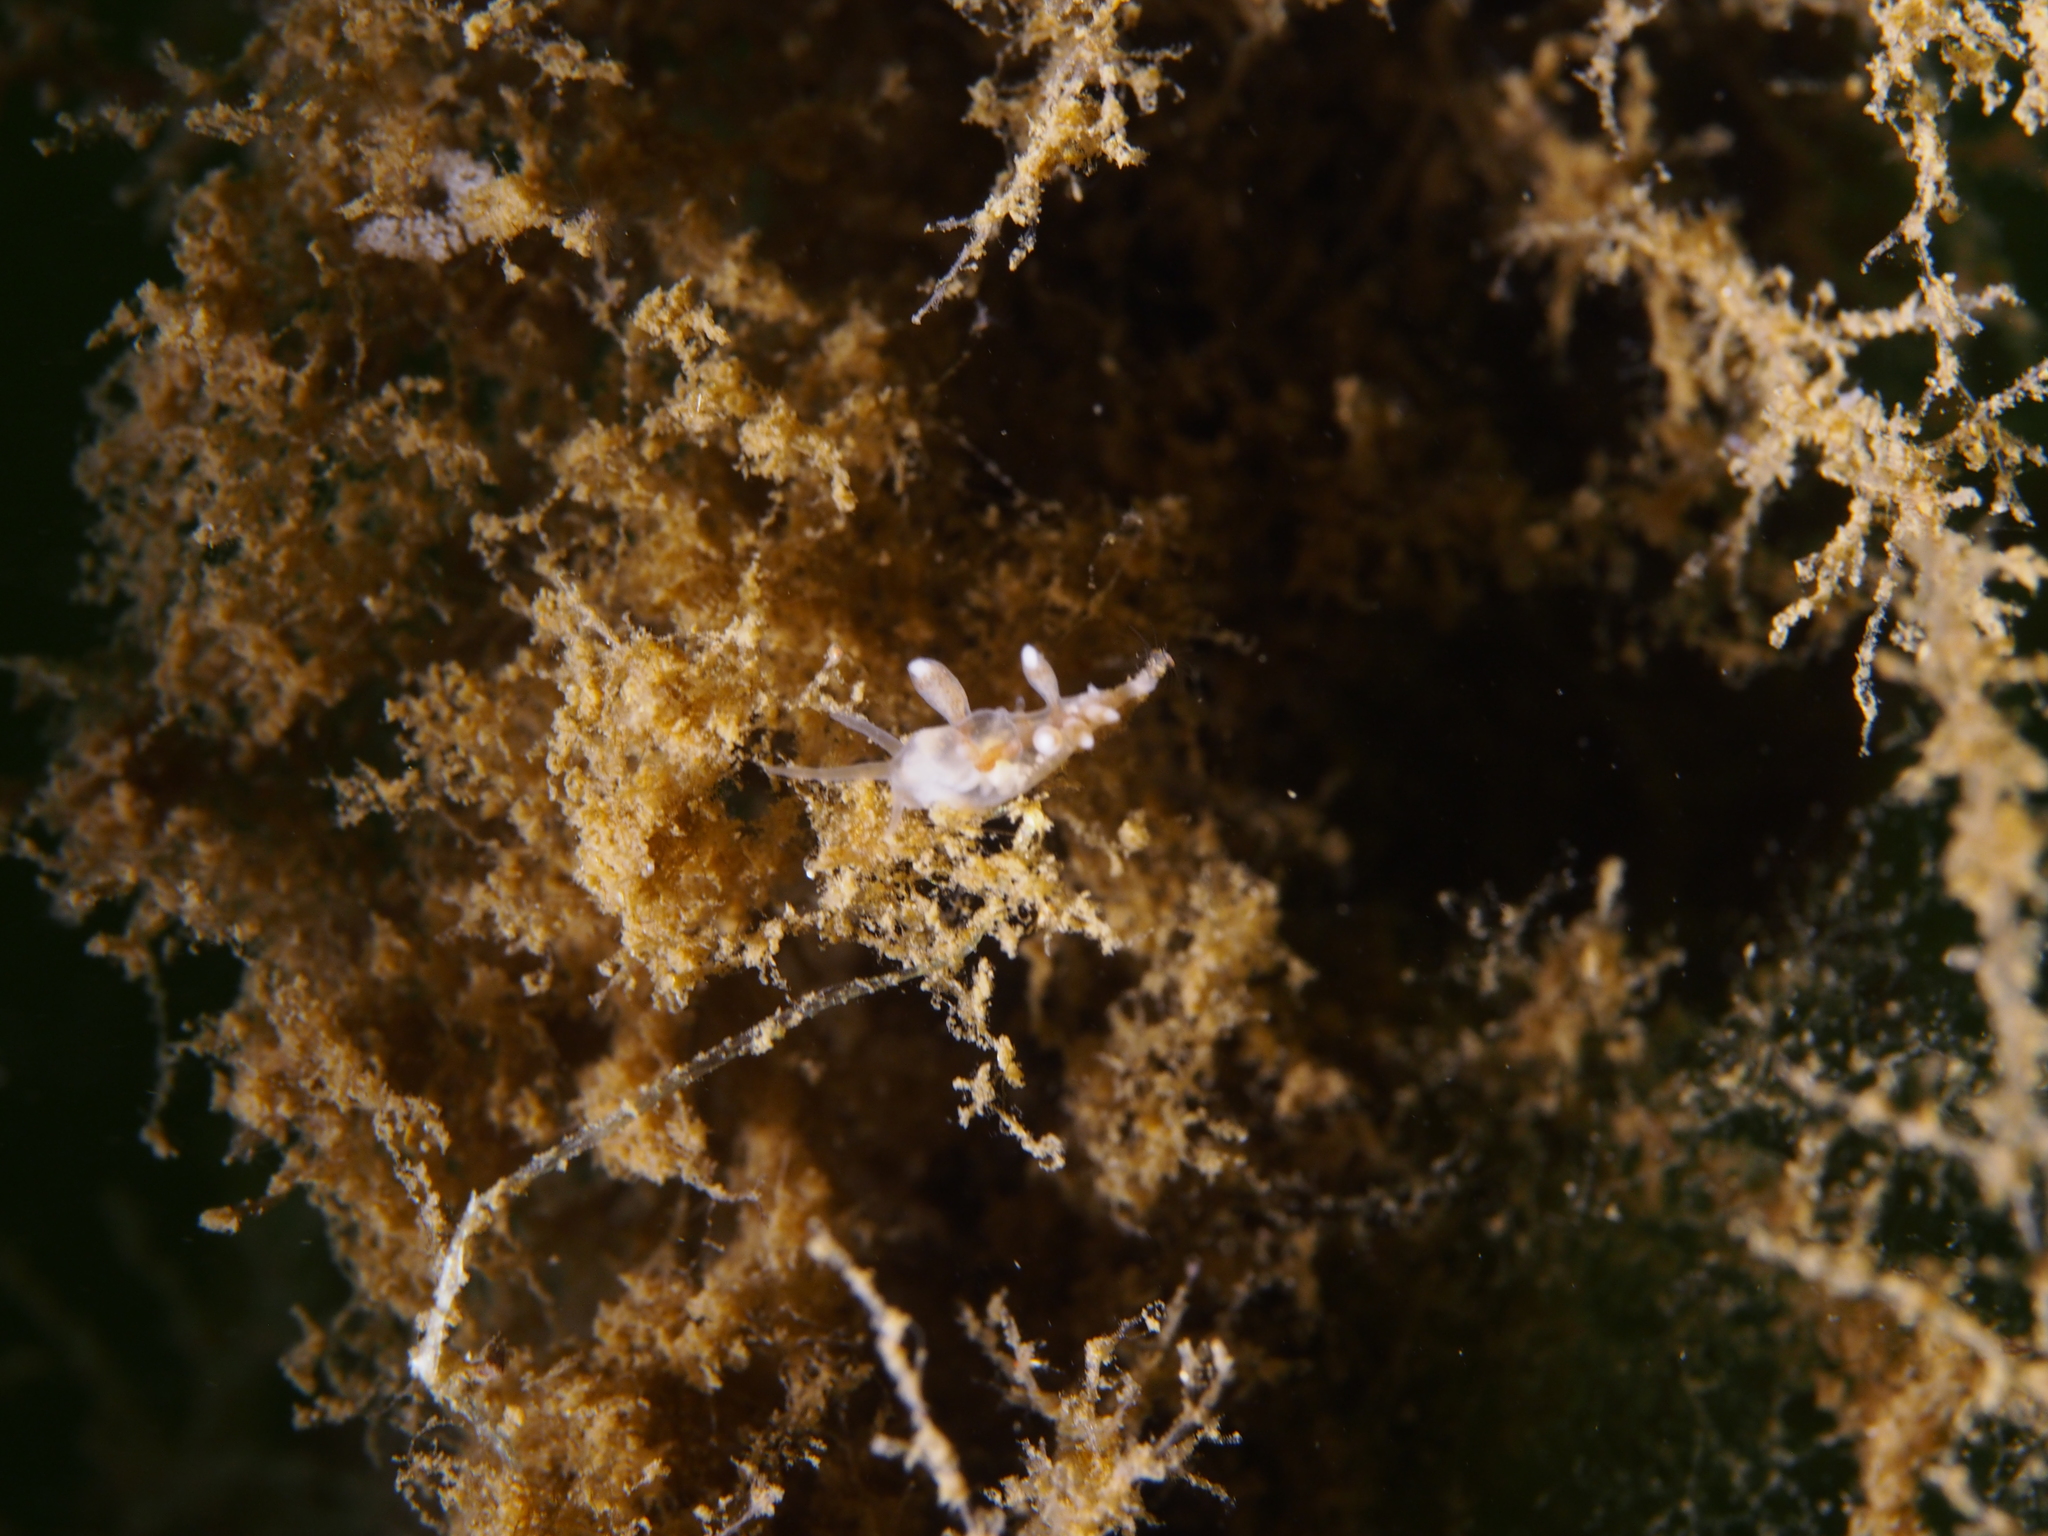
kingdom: Animalia
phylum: Mollusca
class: Gastropoda
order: Nudibranchia
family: Tergipedidae
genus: Tergipes
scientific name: Tergipes tergipes
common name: Johnston's balloon eolis
